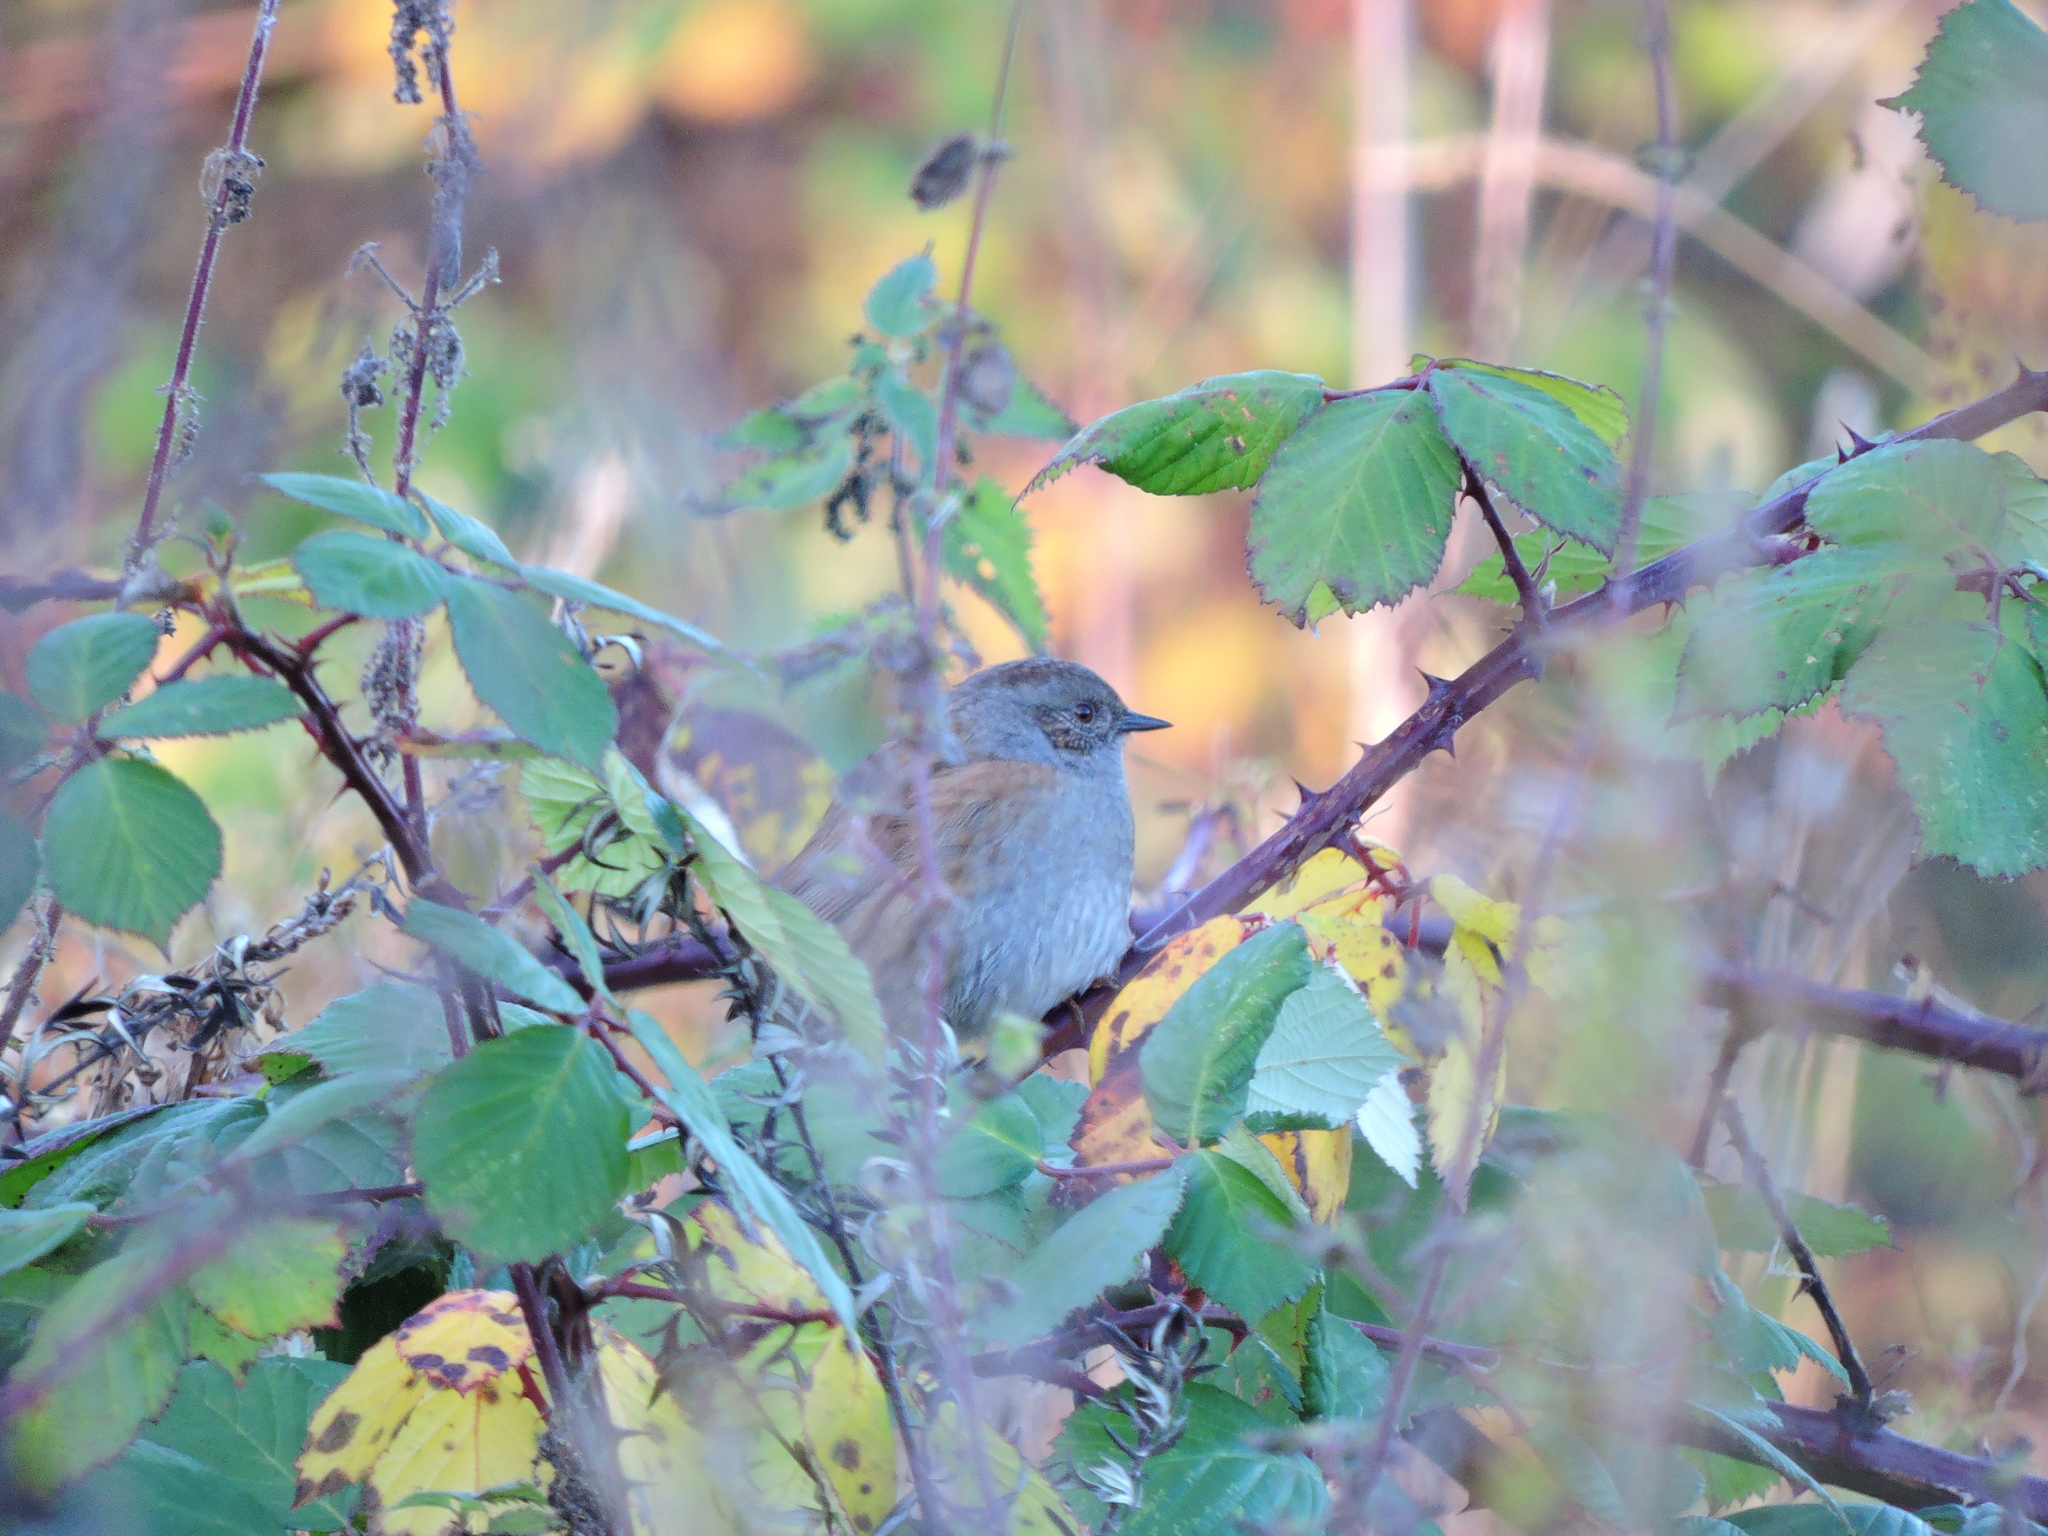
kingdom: Animalia
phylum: Chordata
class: Aves
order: Passeriformes
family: Prunellidae
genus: Prunella
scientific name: Prunella modularis
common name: Dunnock
